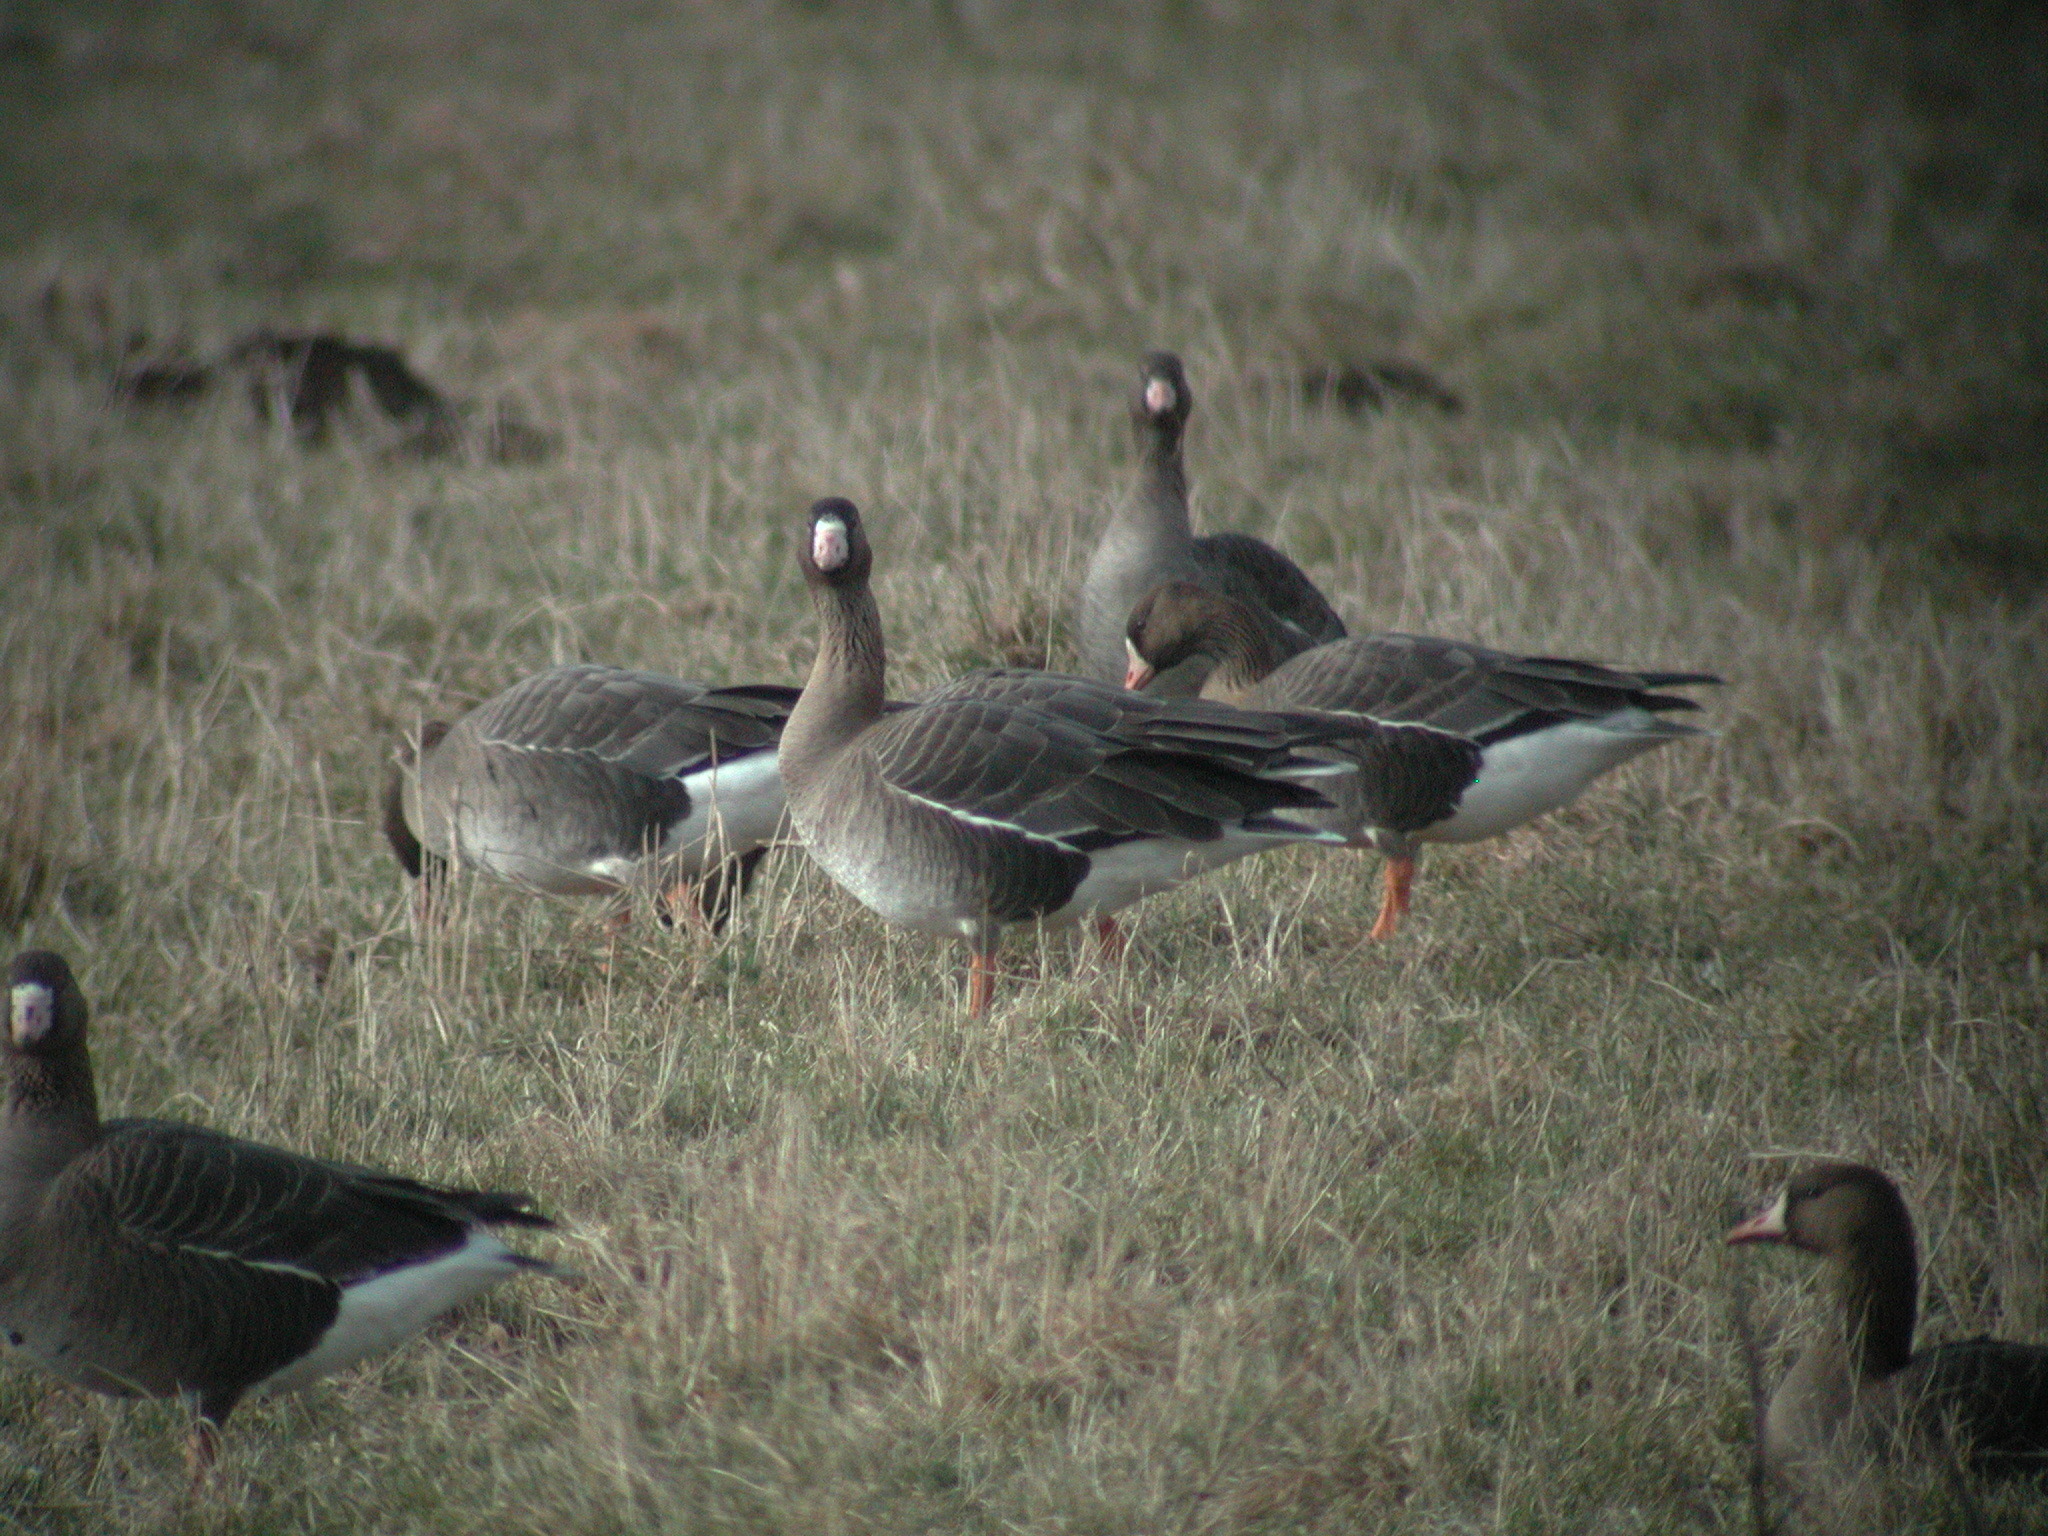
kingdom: Animalia
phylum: Chordata
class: Aves
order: Anseriformes
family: Anatidae
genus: Anser
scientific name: Anser albifrons
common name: Greater white-fronted goose
